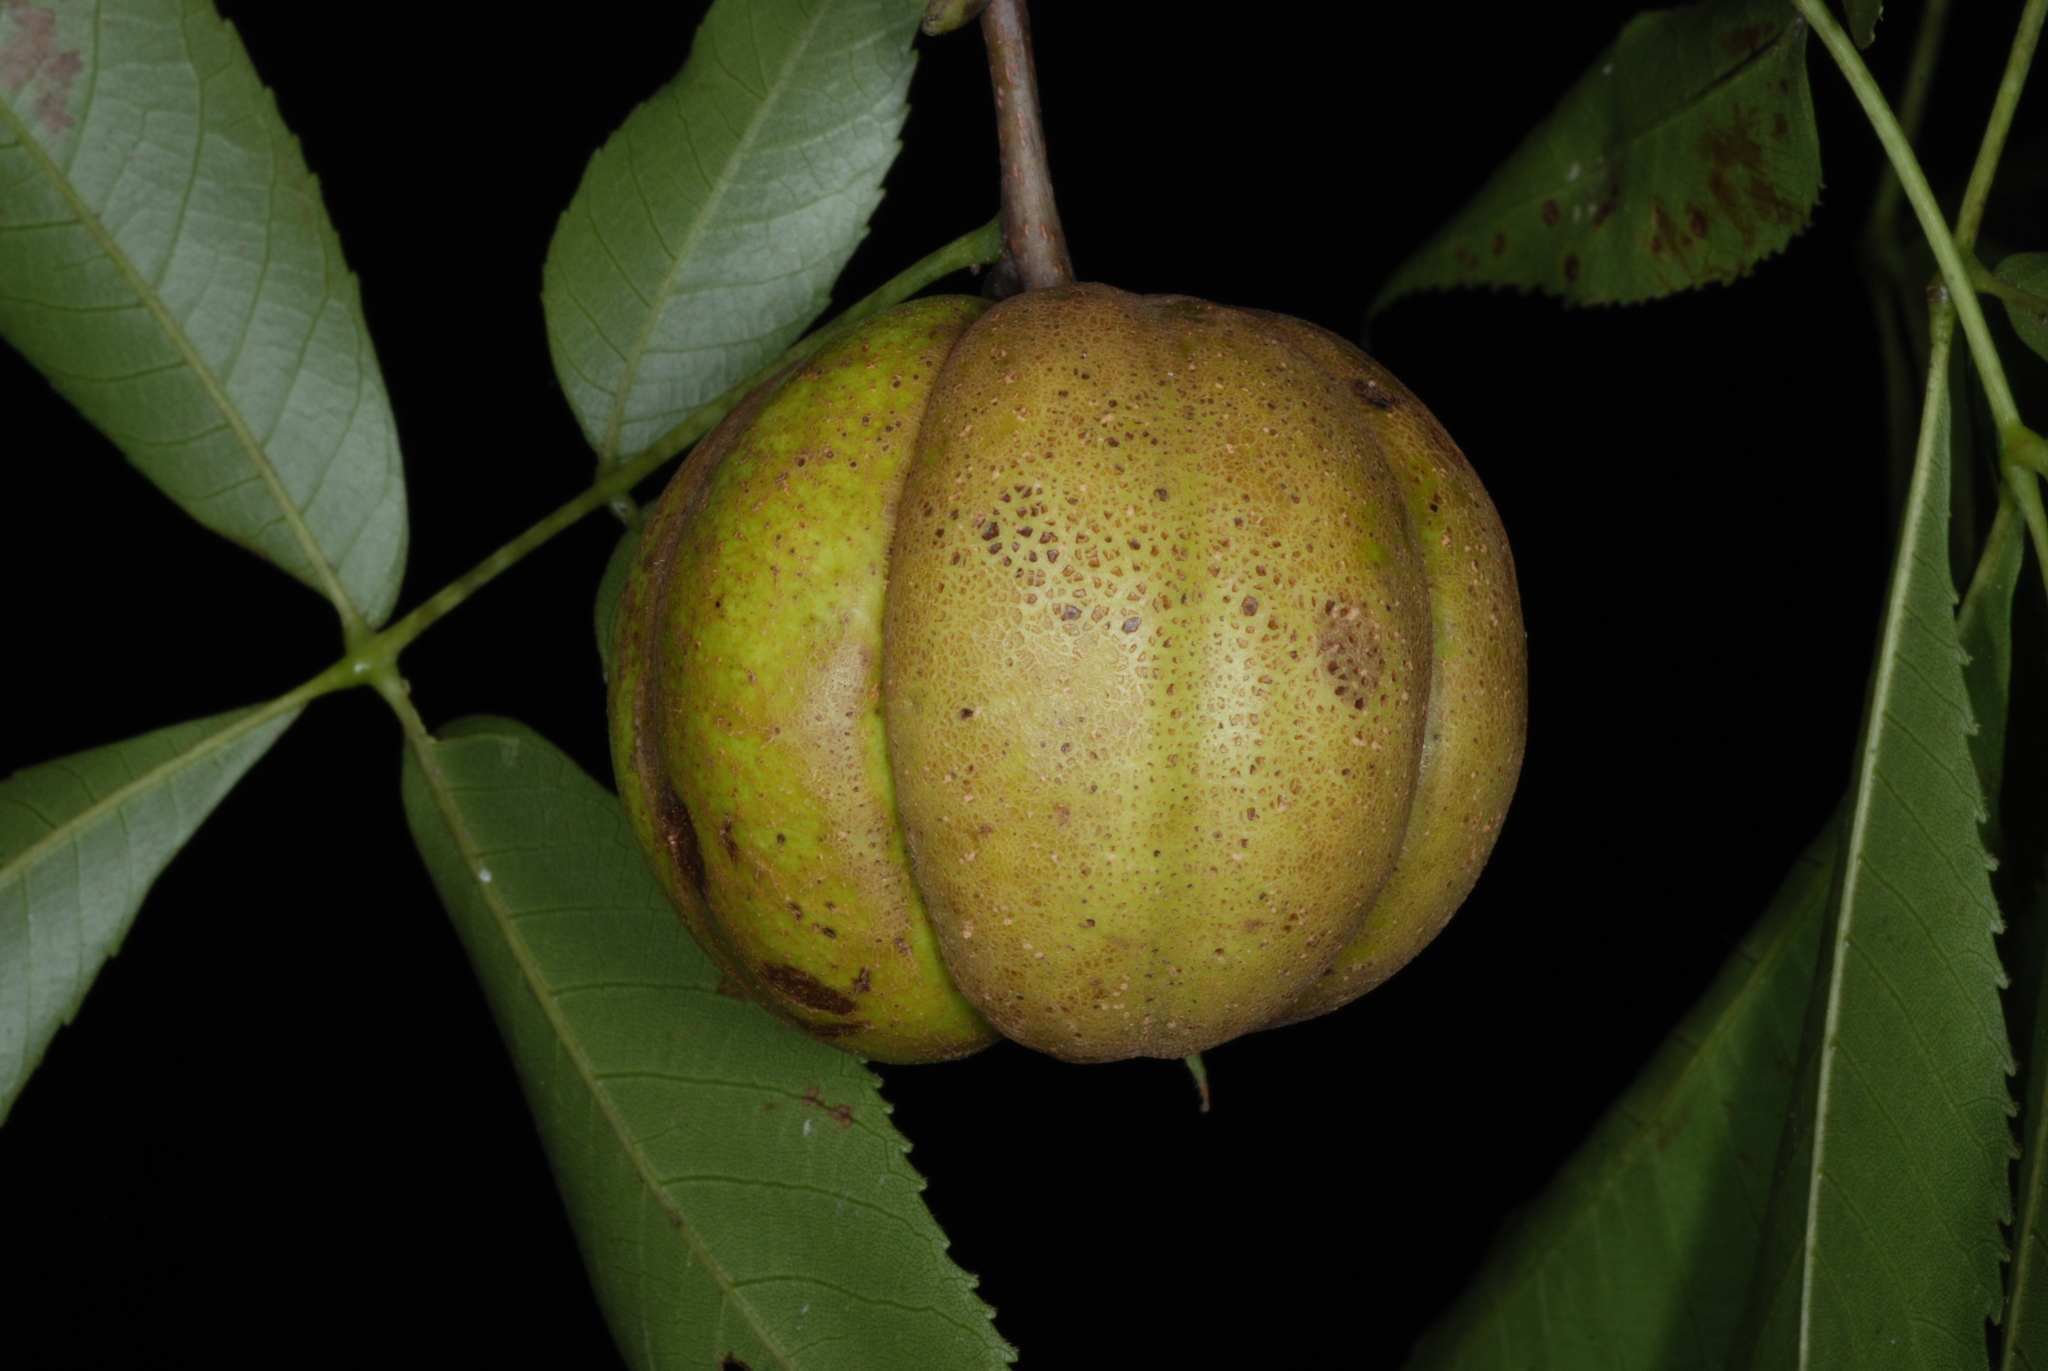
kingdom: Plantae
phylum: Tracheophyta
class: Magnoliopsida
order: Fagales
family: Juglandaceae
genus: Carya
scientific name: Carya carolinae-septentrionalis
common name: Carolina hickory
